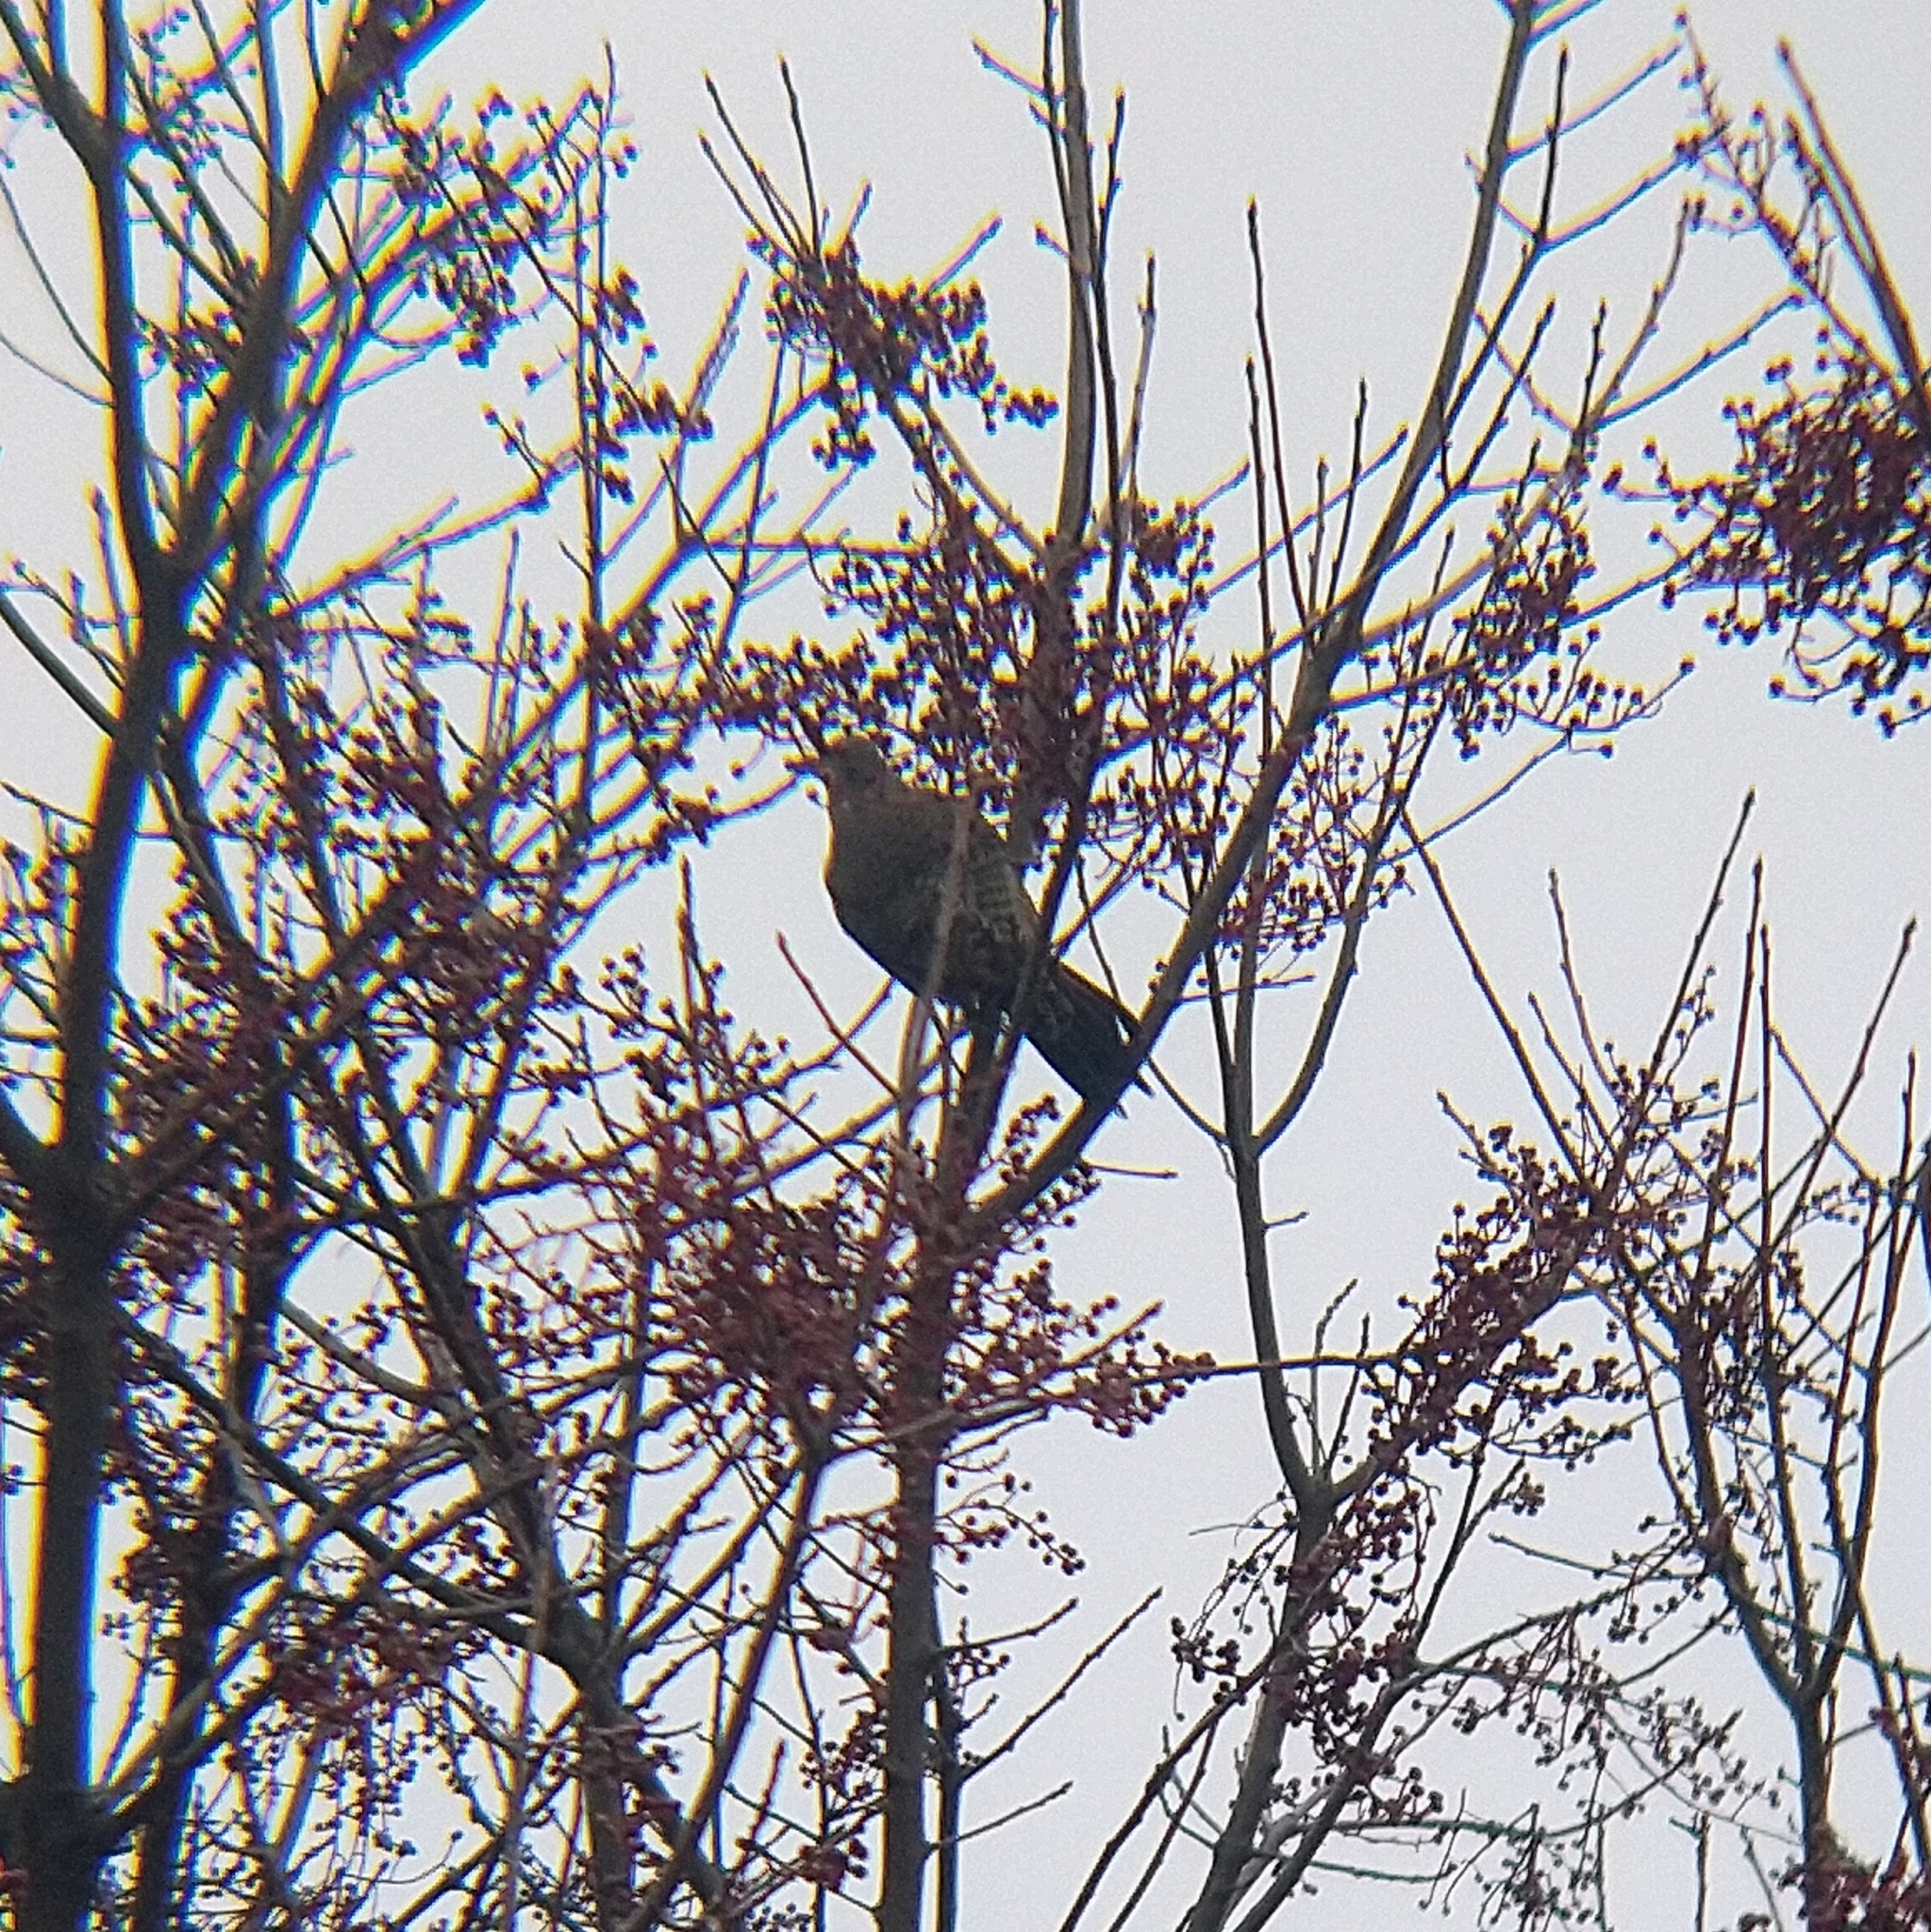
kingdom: Animalia
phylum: Chordata
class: Aves
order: Piciformes
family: Picidae
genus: Colaptes
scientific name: Colaptes auratus
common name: Northern flicker
